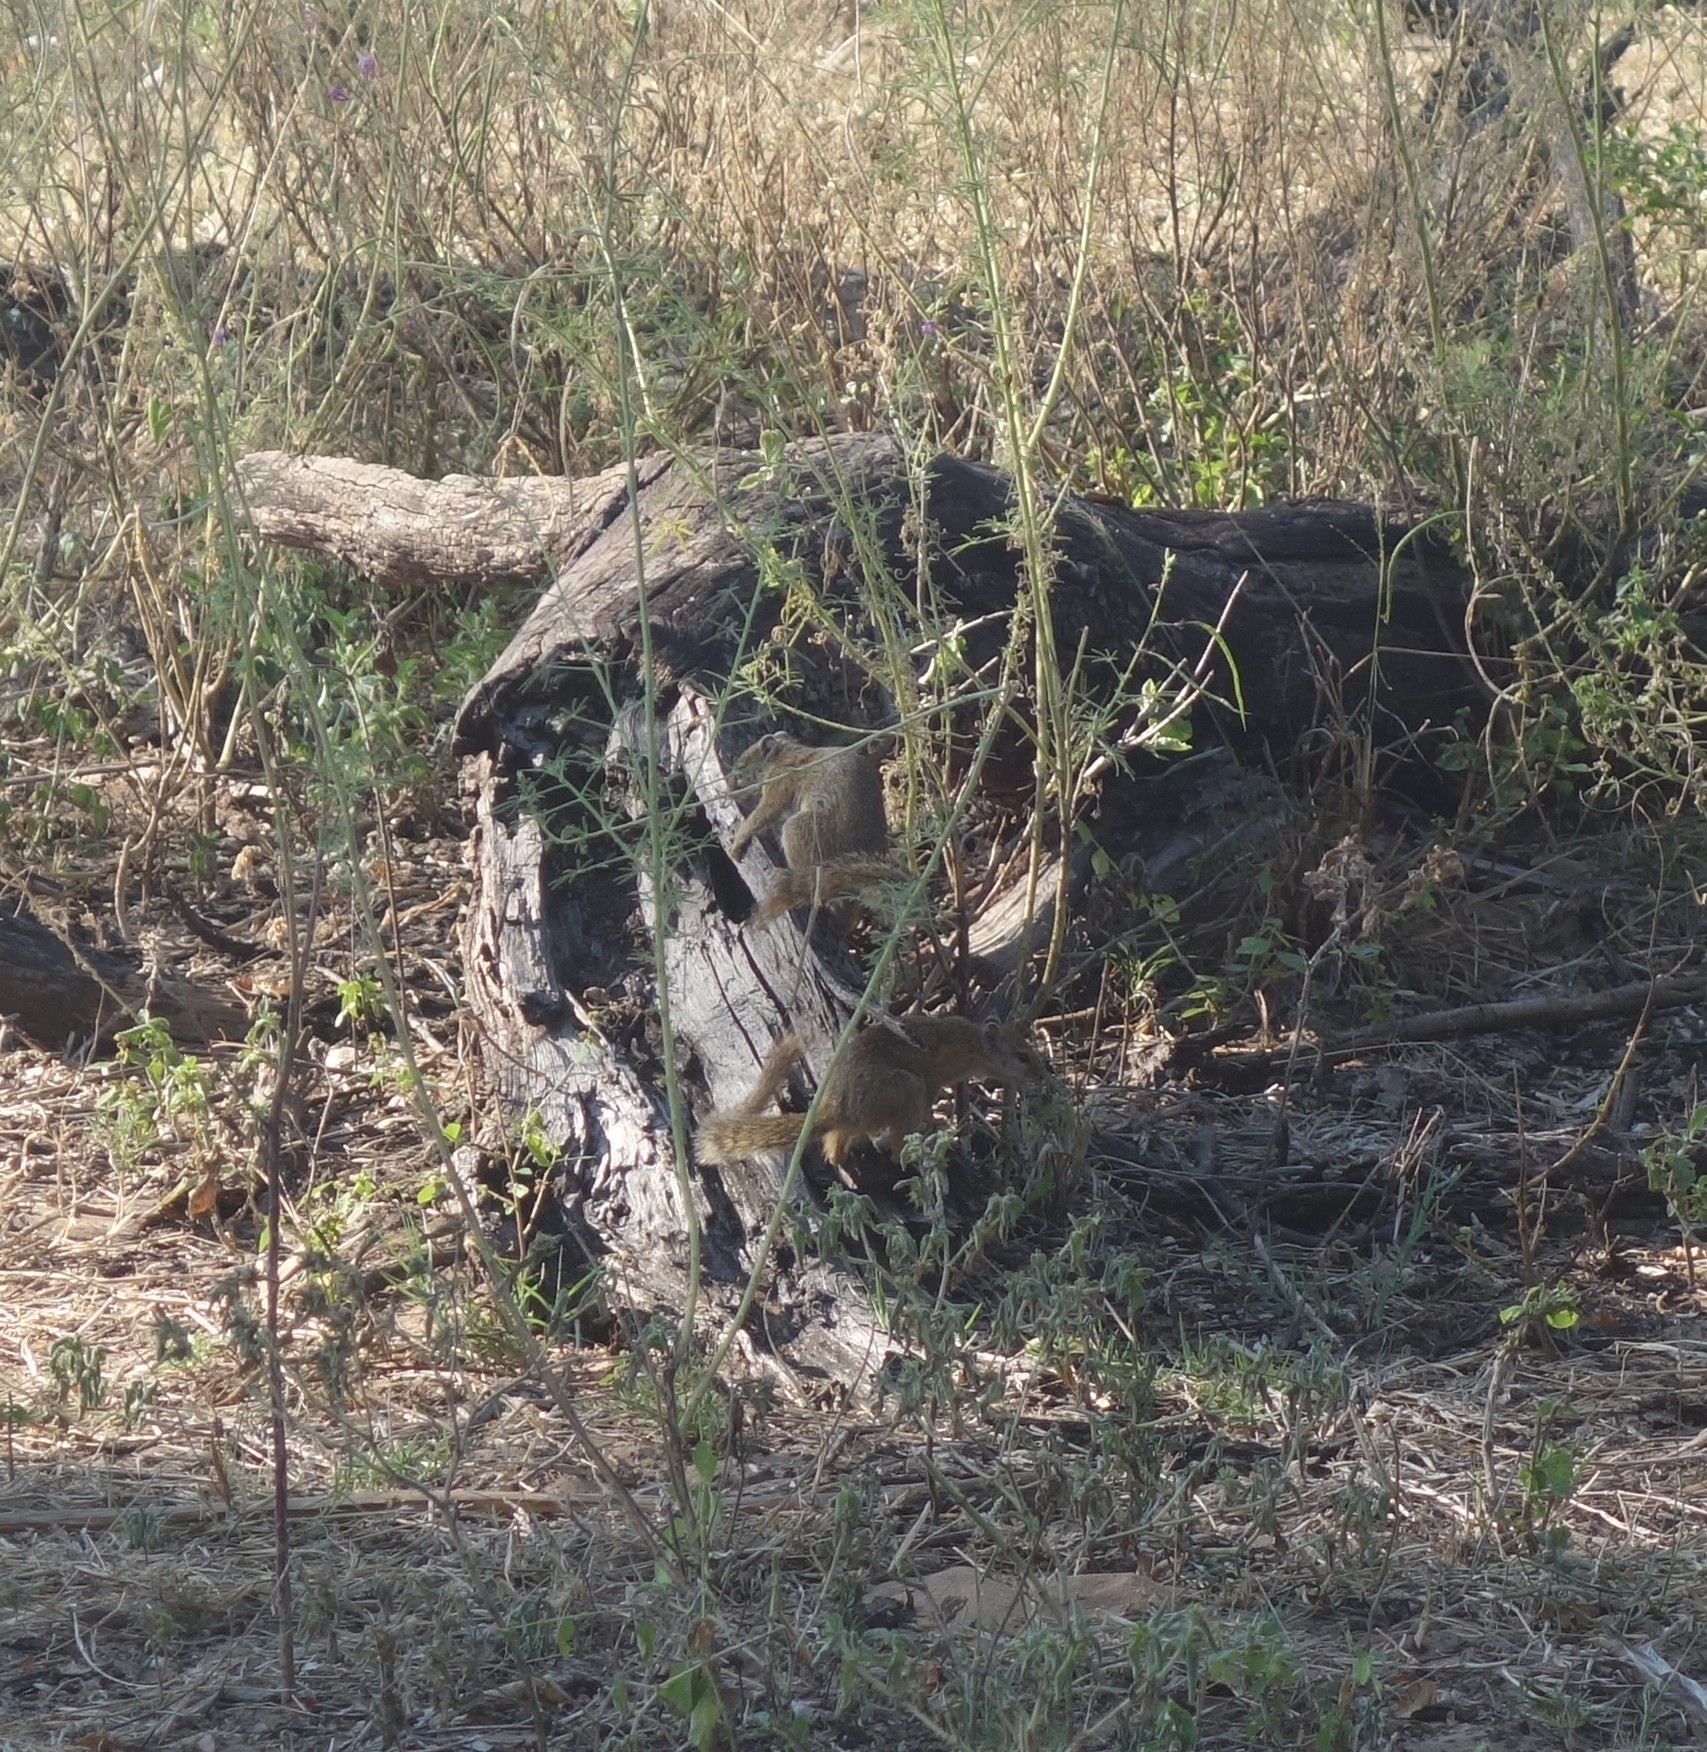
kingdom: Animalia
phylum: Chordata
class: Mammalia
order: Rodentia
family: Sciuridae
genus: Paraxerus
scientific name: Paraxerus cepapi
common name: Smith's bush squirrel
